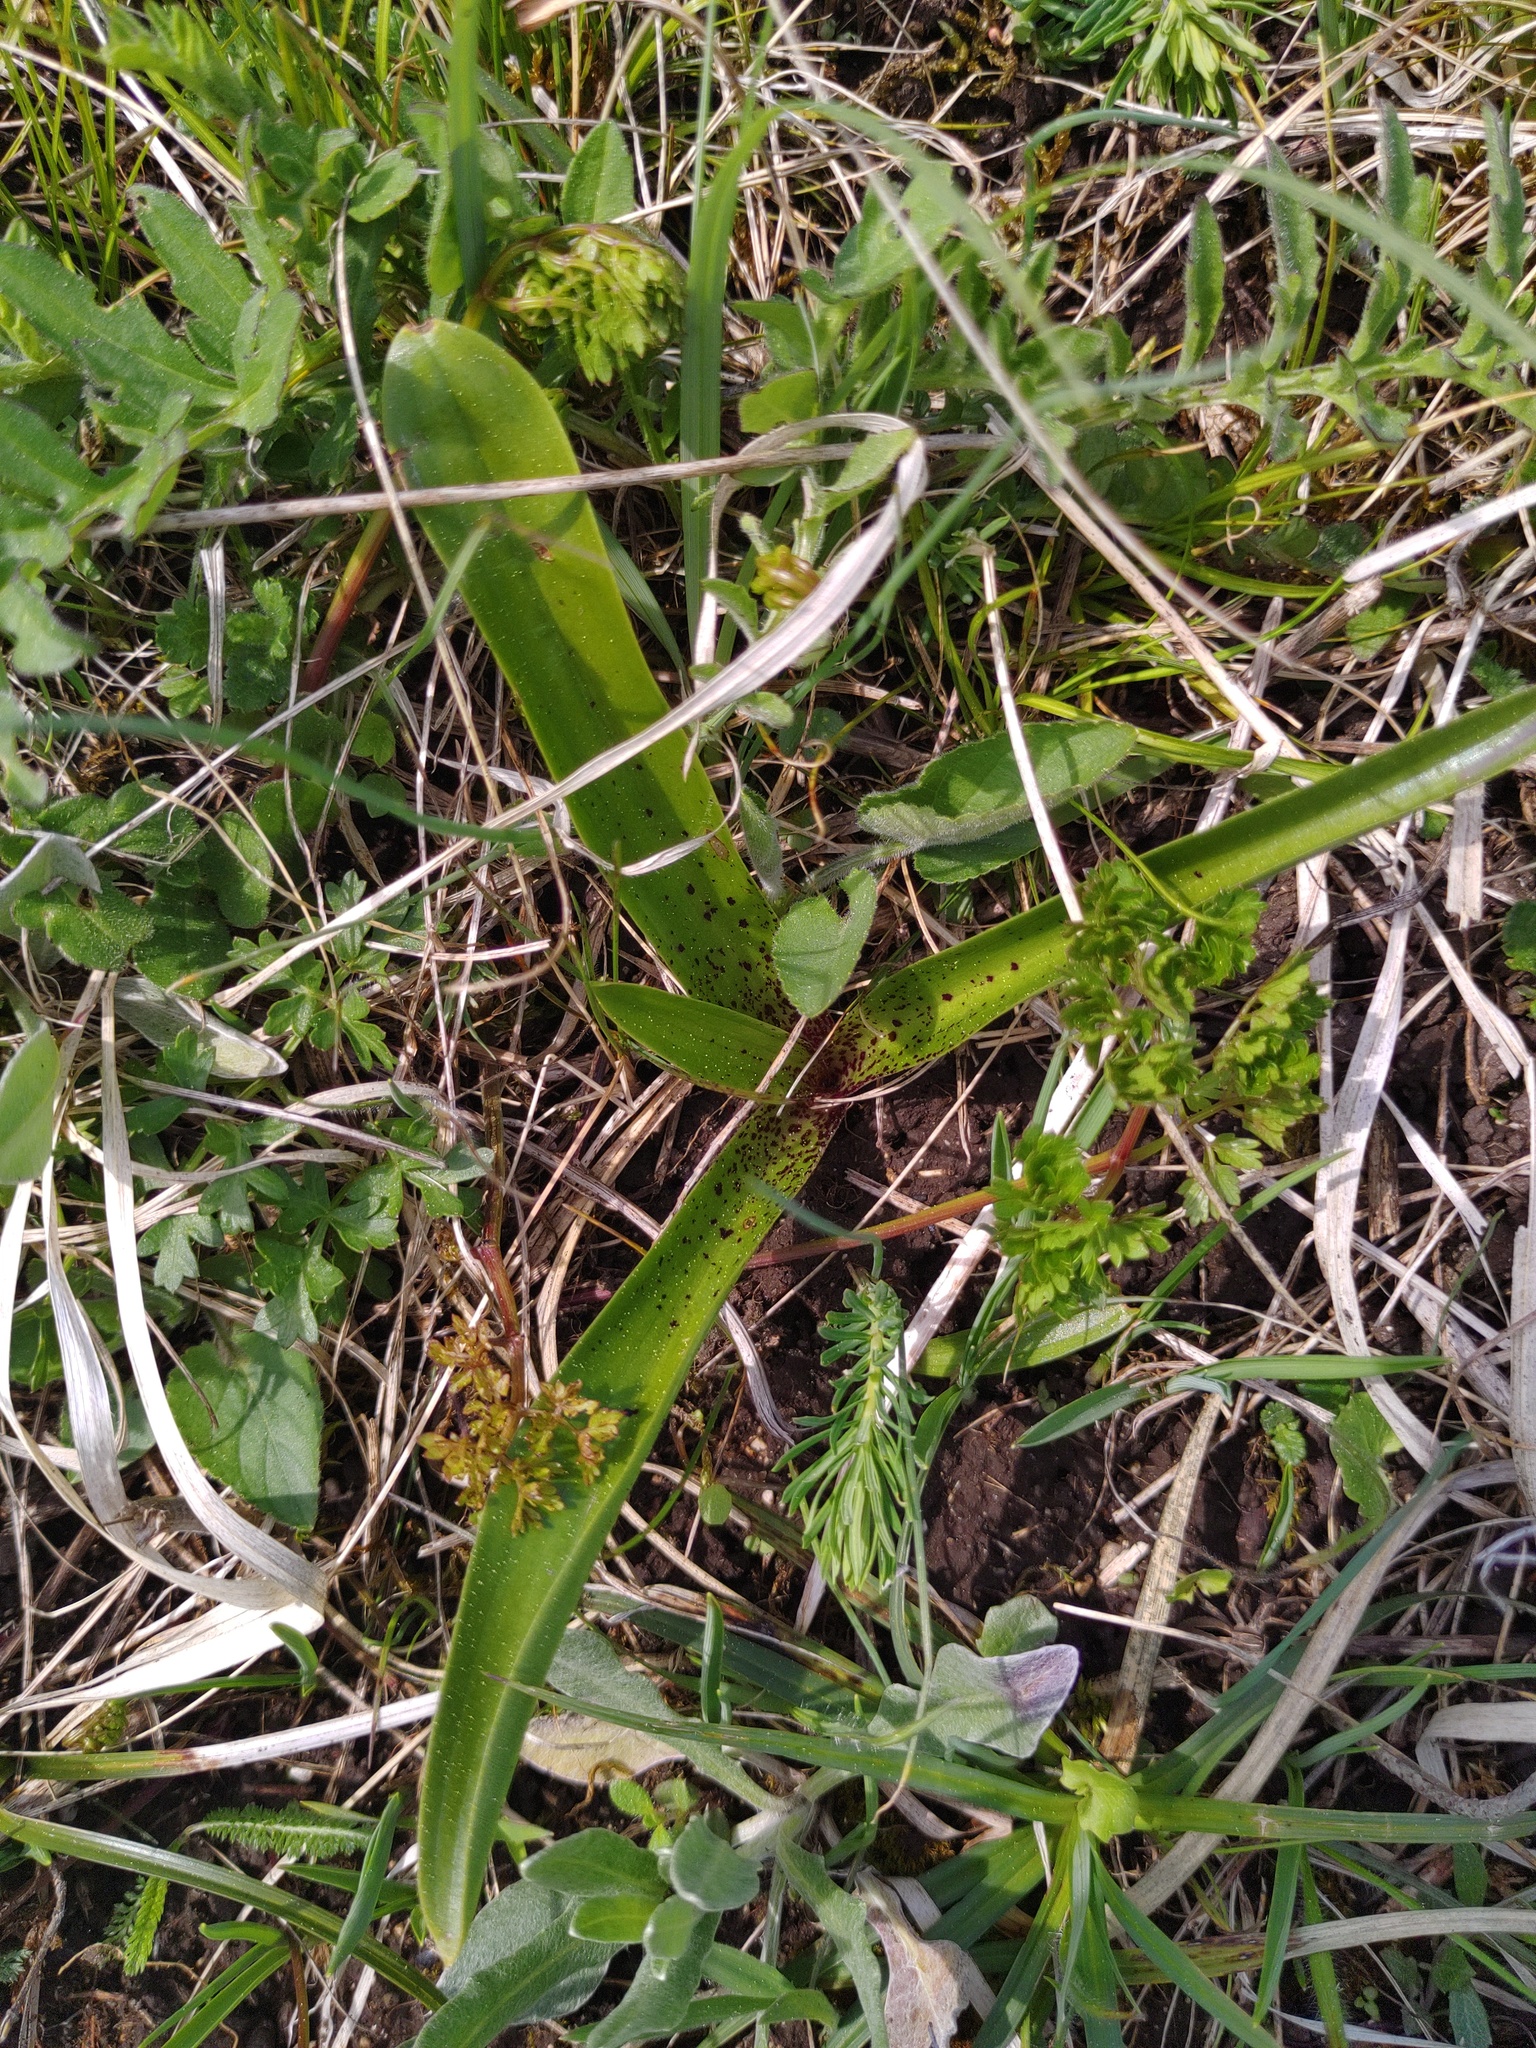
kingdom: Plantae
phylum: Tracheophyta
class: Liliopsida
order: Asparagales
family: Orchidaceae
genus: Orchis
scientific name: Orchis mascula
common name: Early-purple orchid
